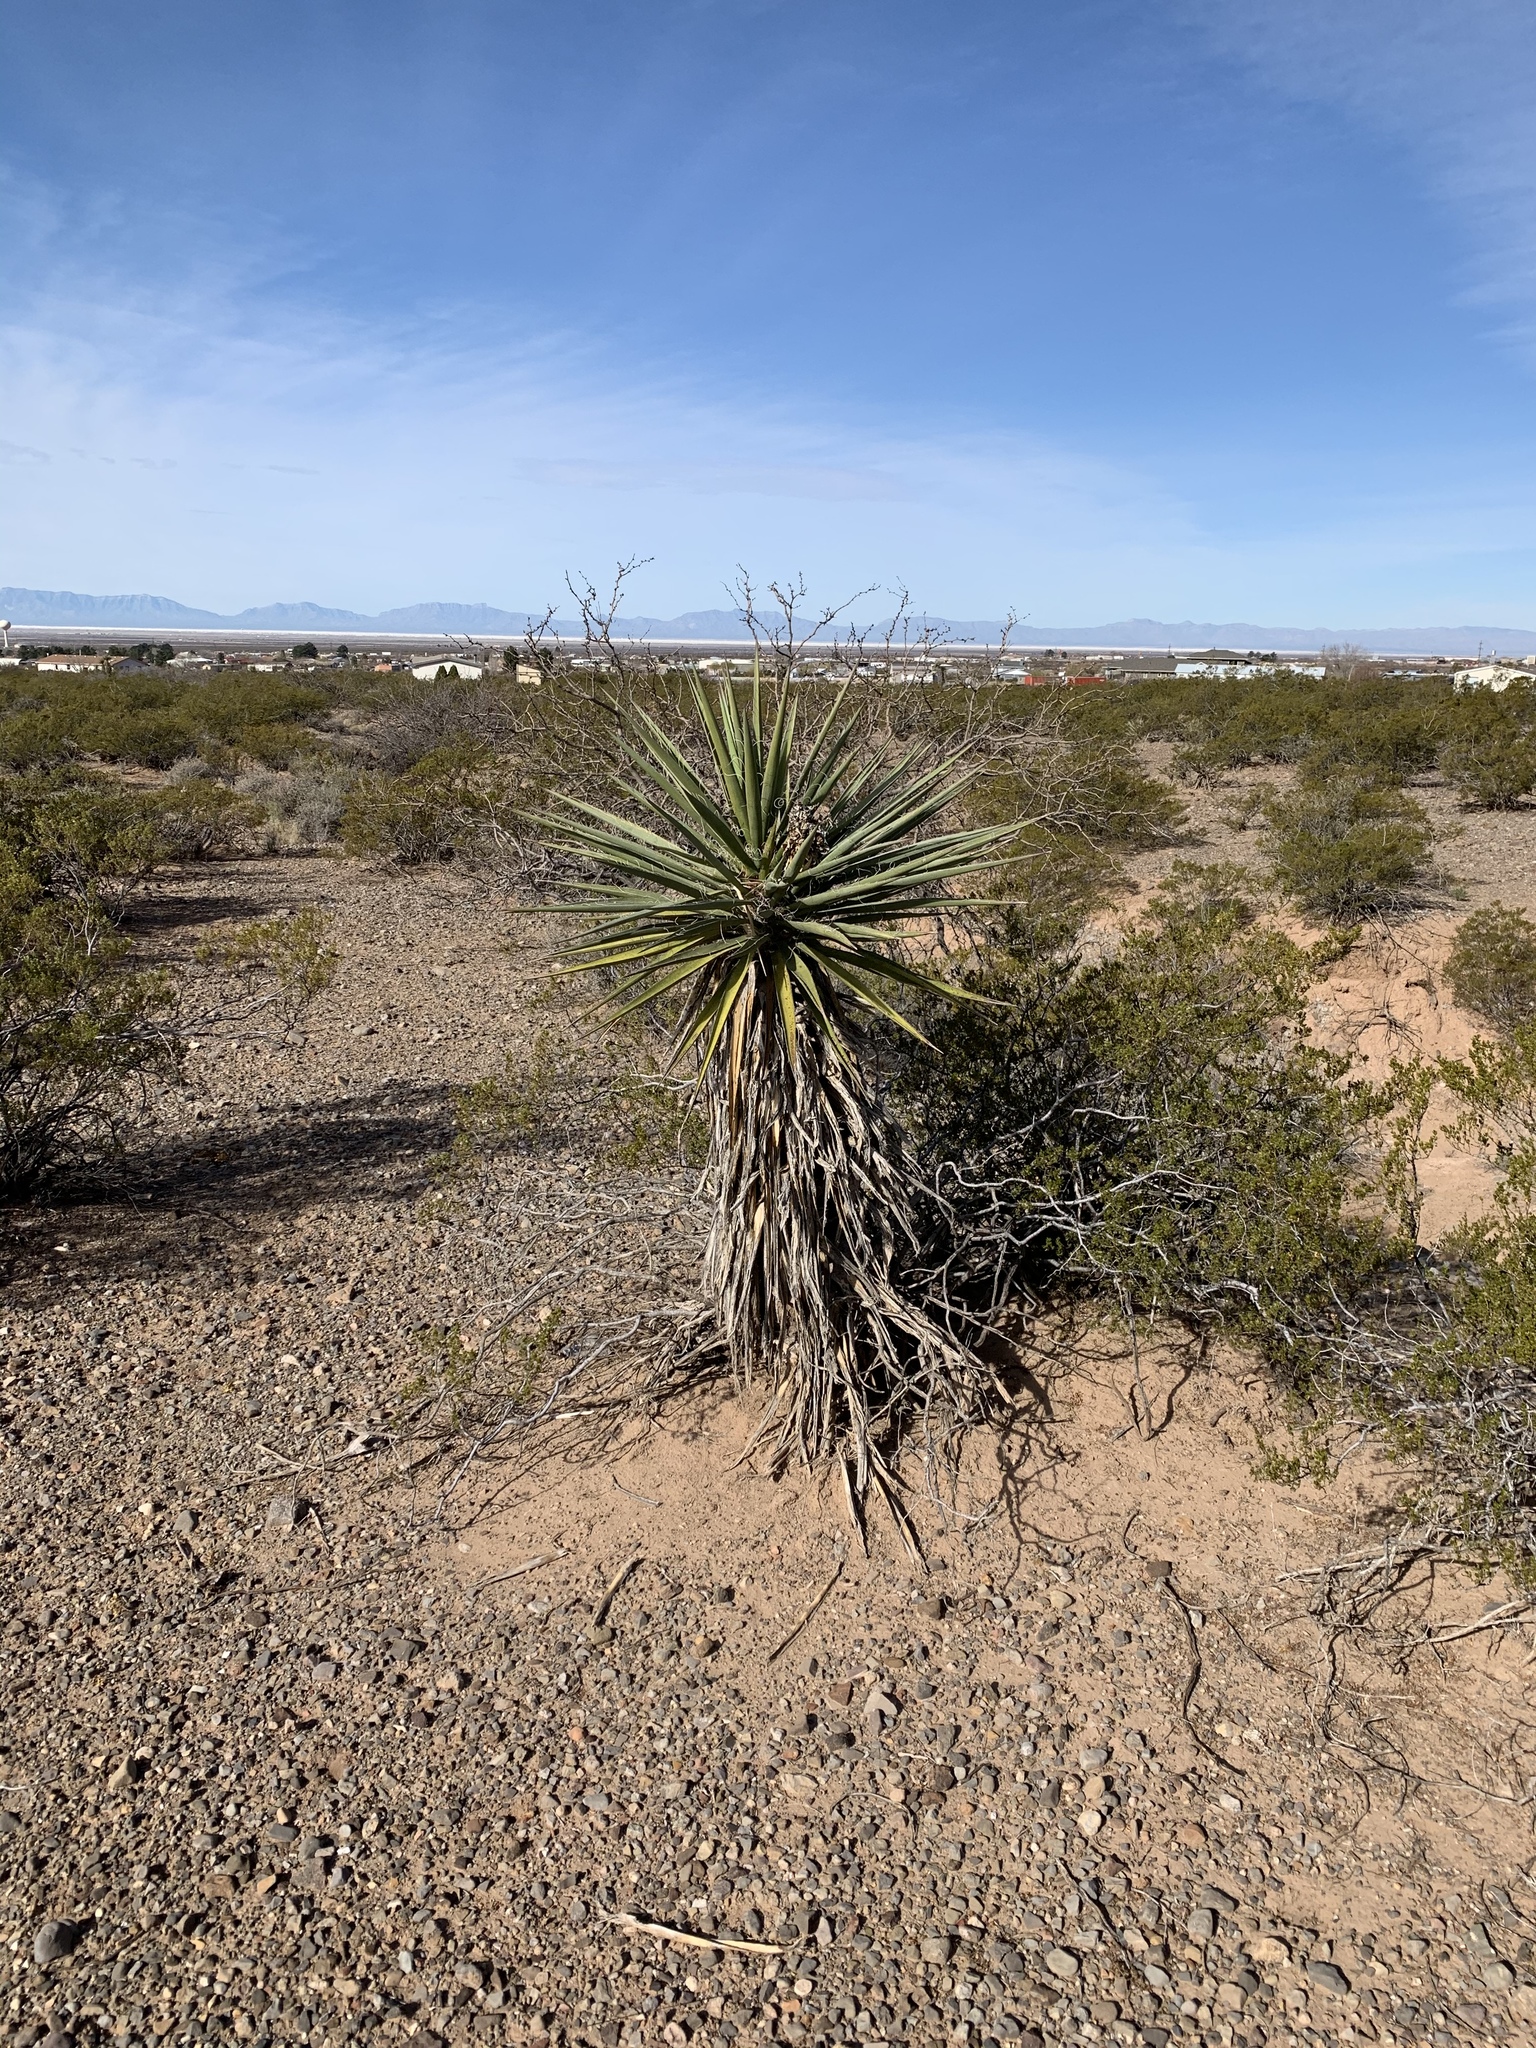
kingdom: Plantae
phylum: Tracheophyta
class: Liliopsida
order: Asparagales
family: Asparagaceae
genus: Yucca
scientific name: Yucca treculiana
